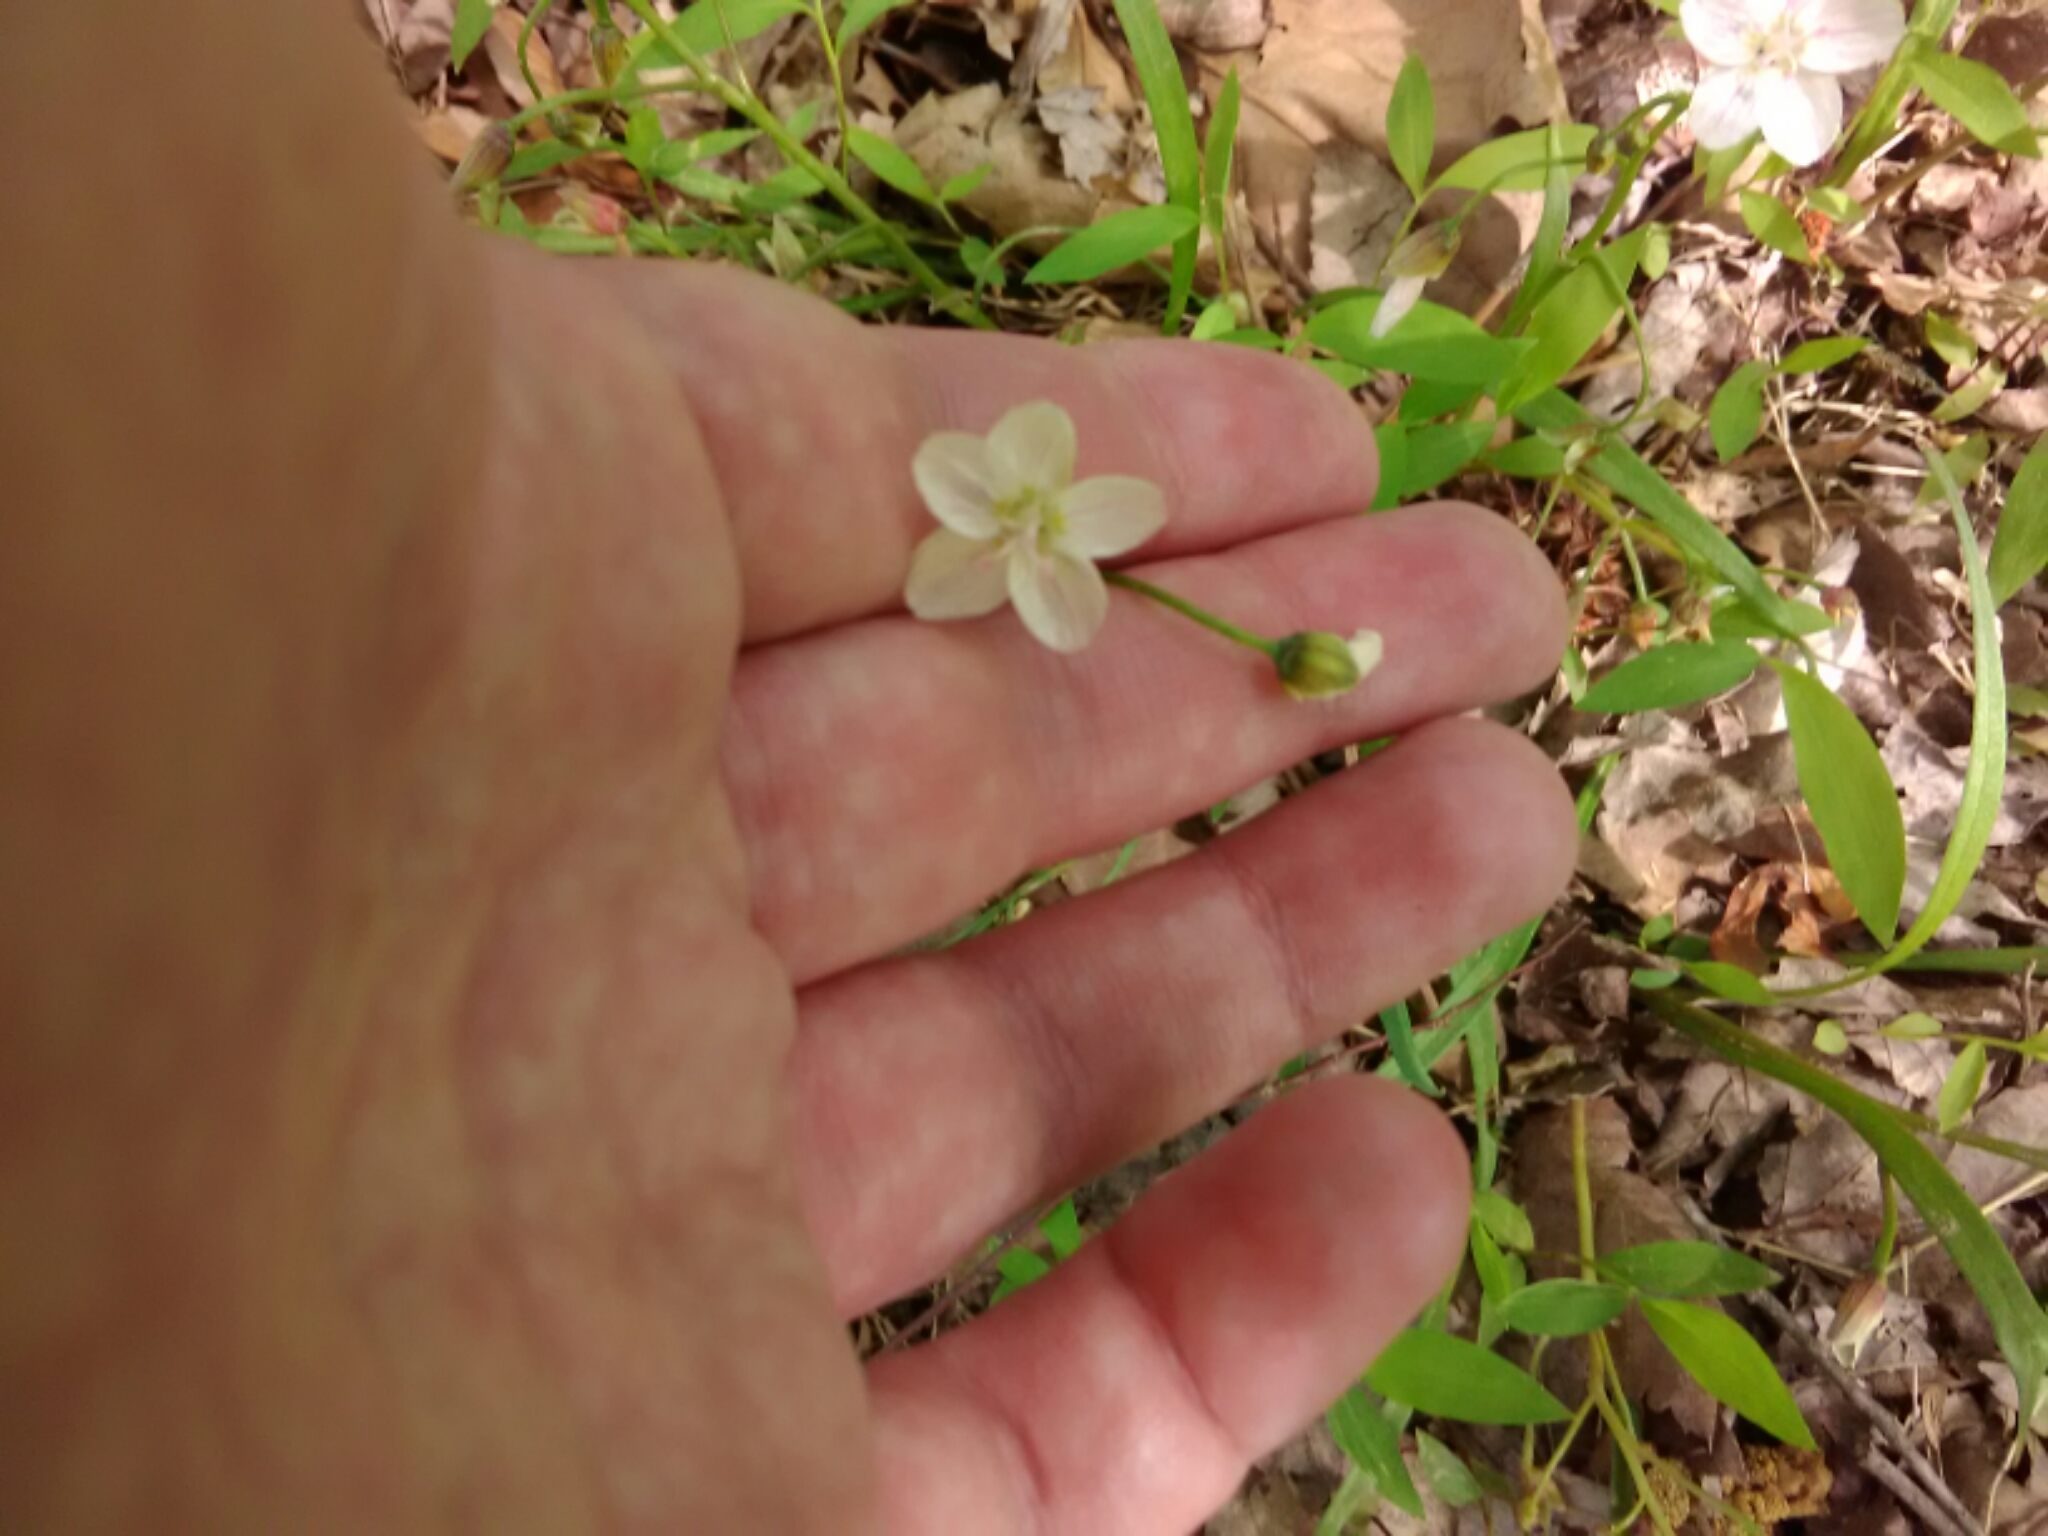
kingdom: Plantae
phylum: Tracheophyta
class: Magnoliopsida
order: Caryophyllales
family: Montiaceae
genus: Claytonia
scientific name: Claytonia virginica
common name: Virginia springbeauty
